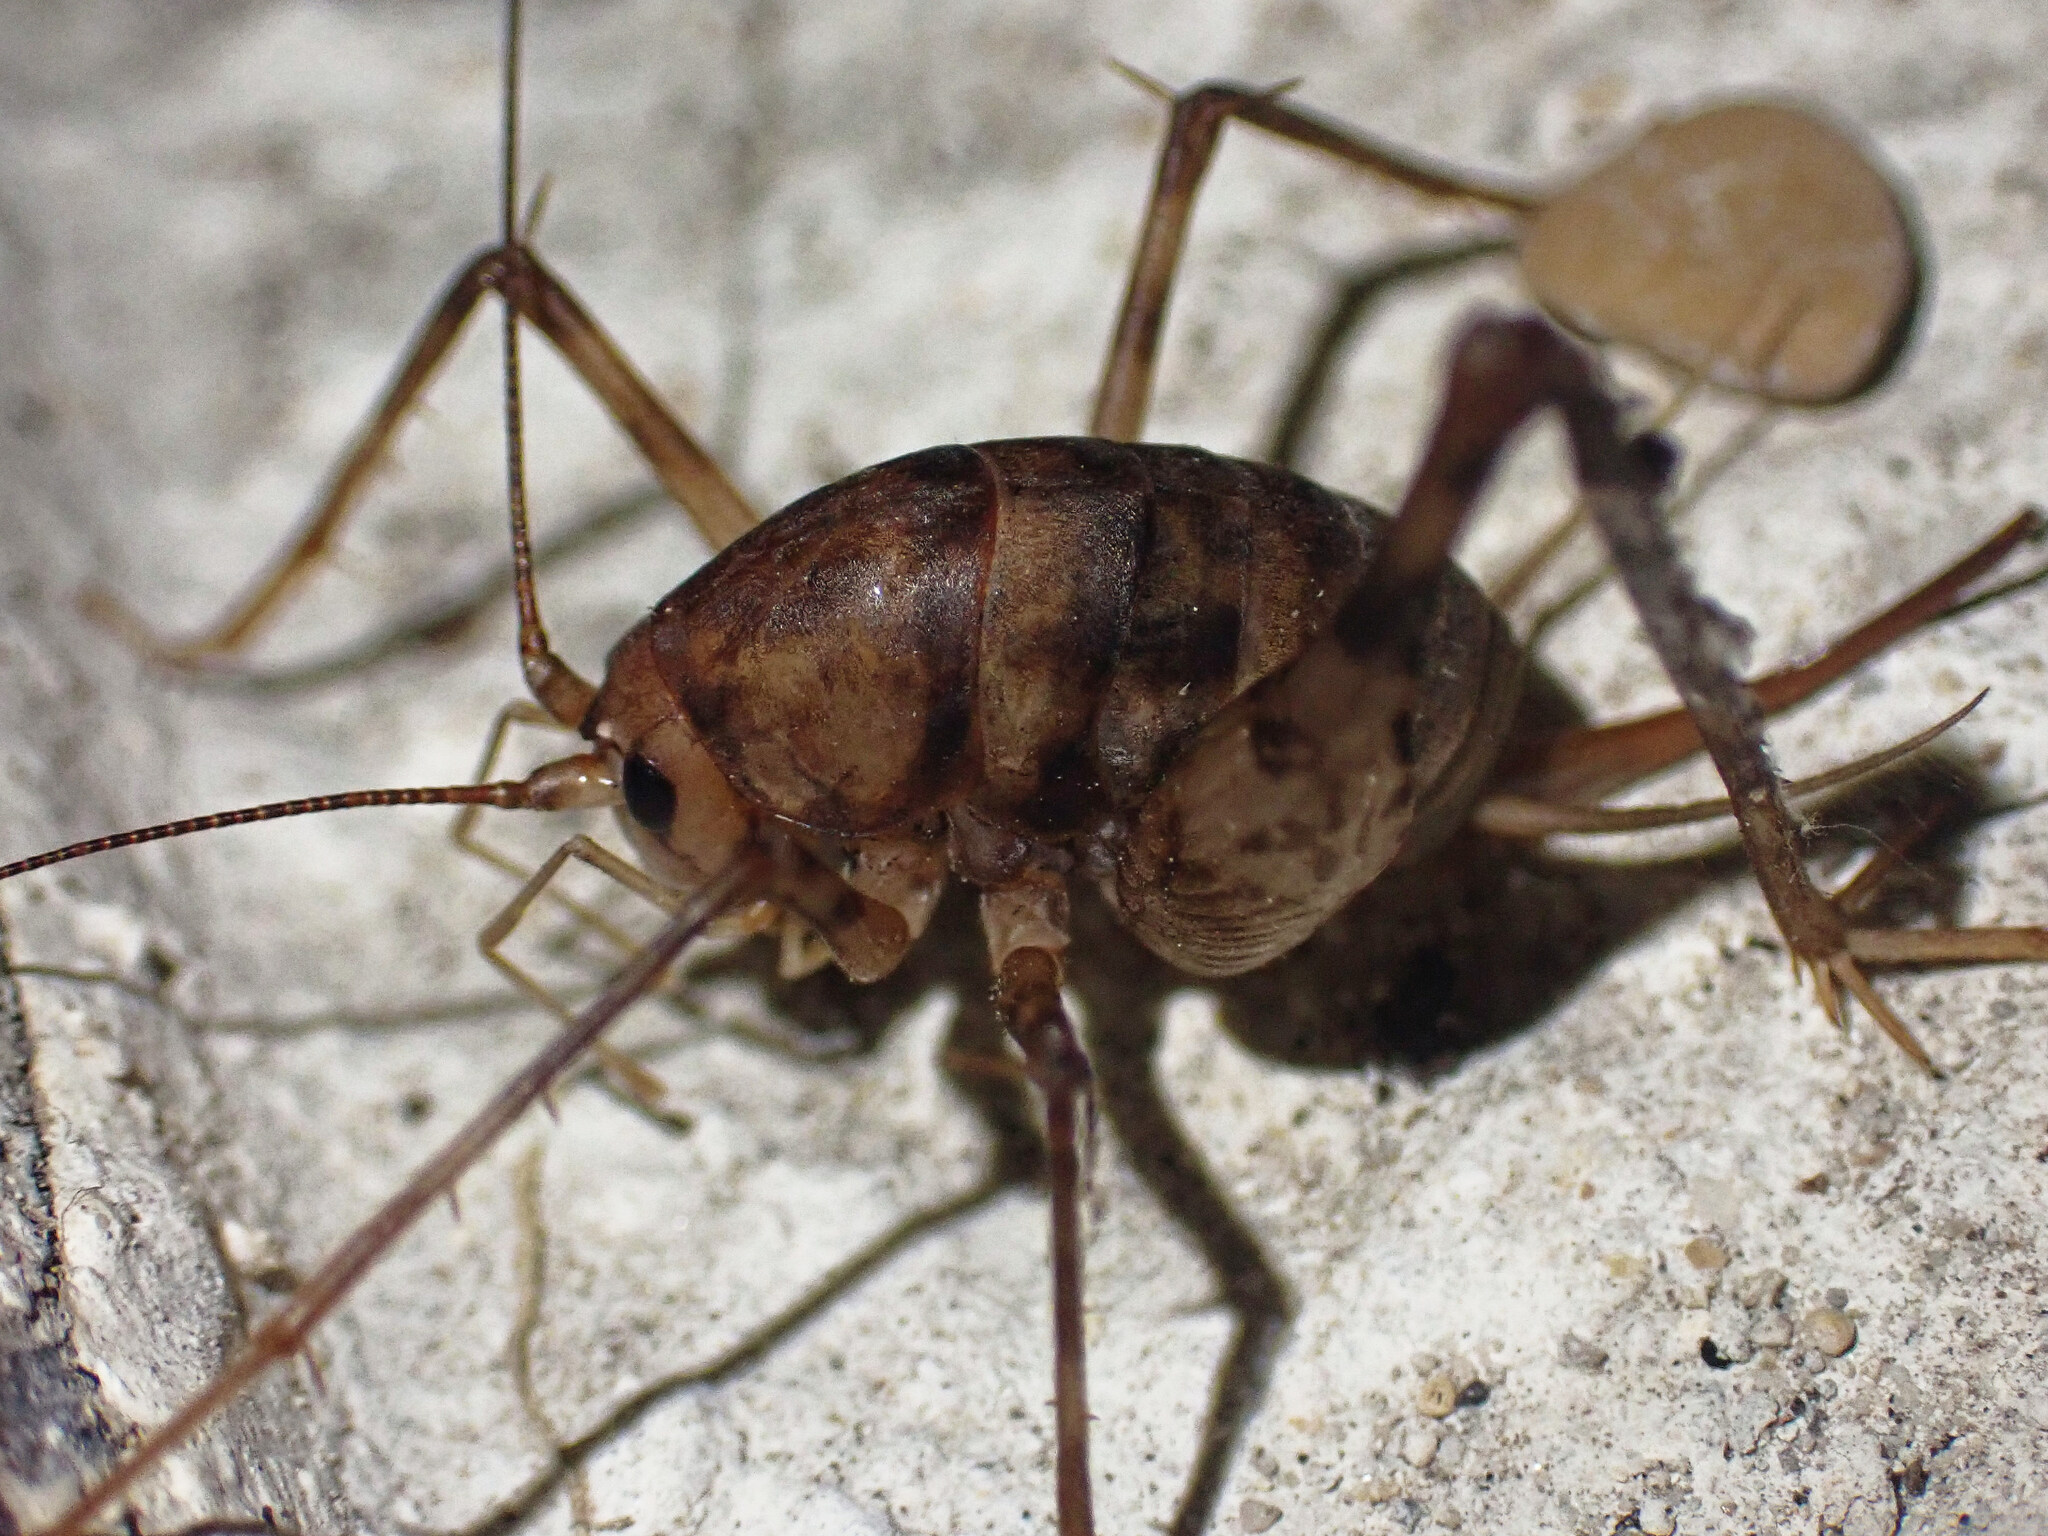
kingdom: Animalia
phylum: Arthropoda
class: Insecta
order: Orthoptera
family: Rhaphidophoridae
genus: Tachycines
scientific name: Tachycines asynamorus
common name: Greenhouse camel cricket
